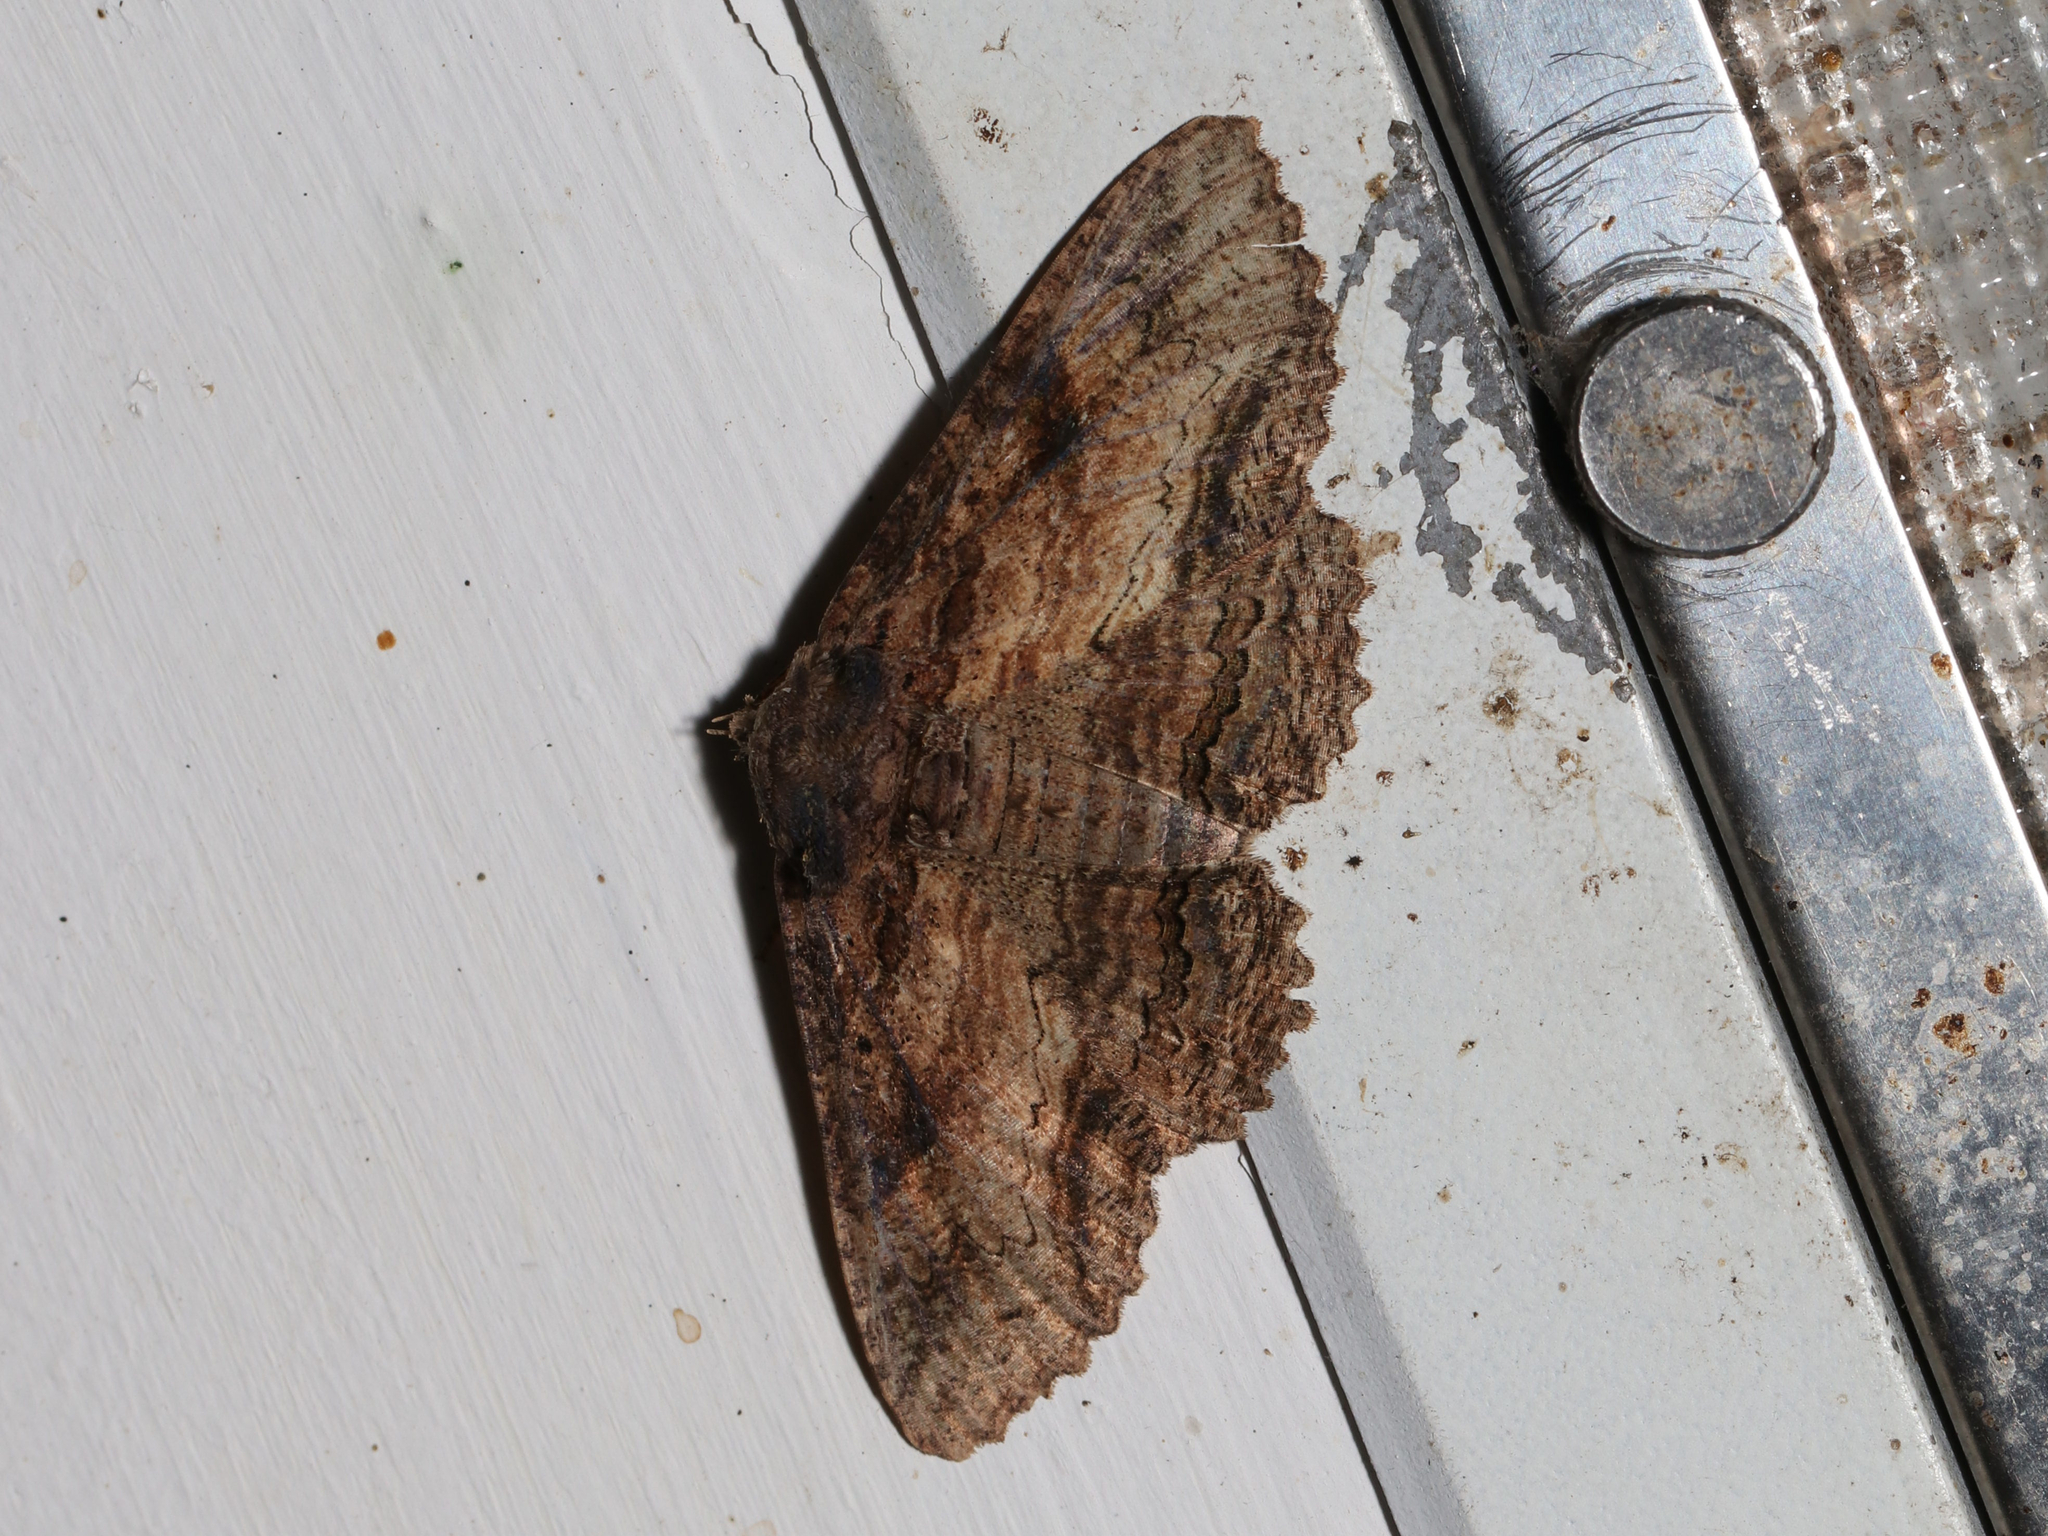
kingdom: Animalia
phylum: Arthropoda
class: Insecta
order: Lepidoptera
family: Erebidae
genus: Zale
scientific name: Zale lunata
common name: Lunate zale moth
